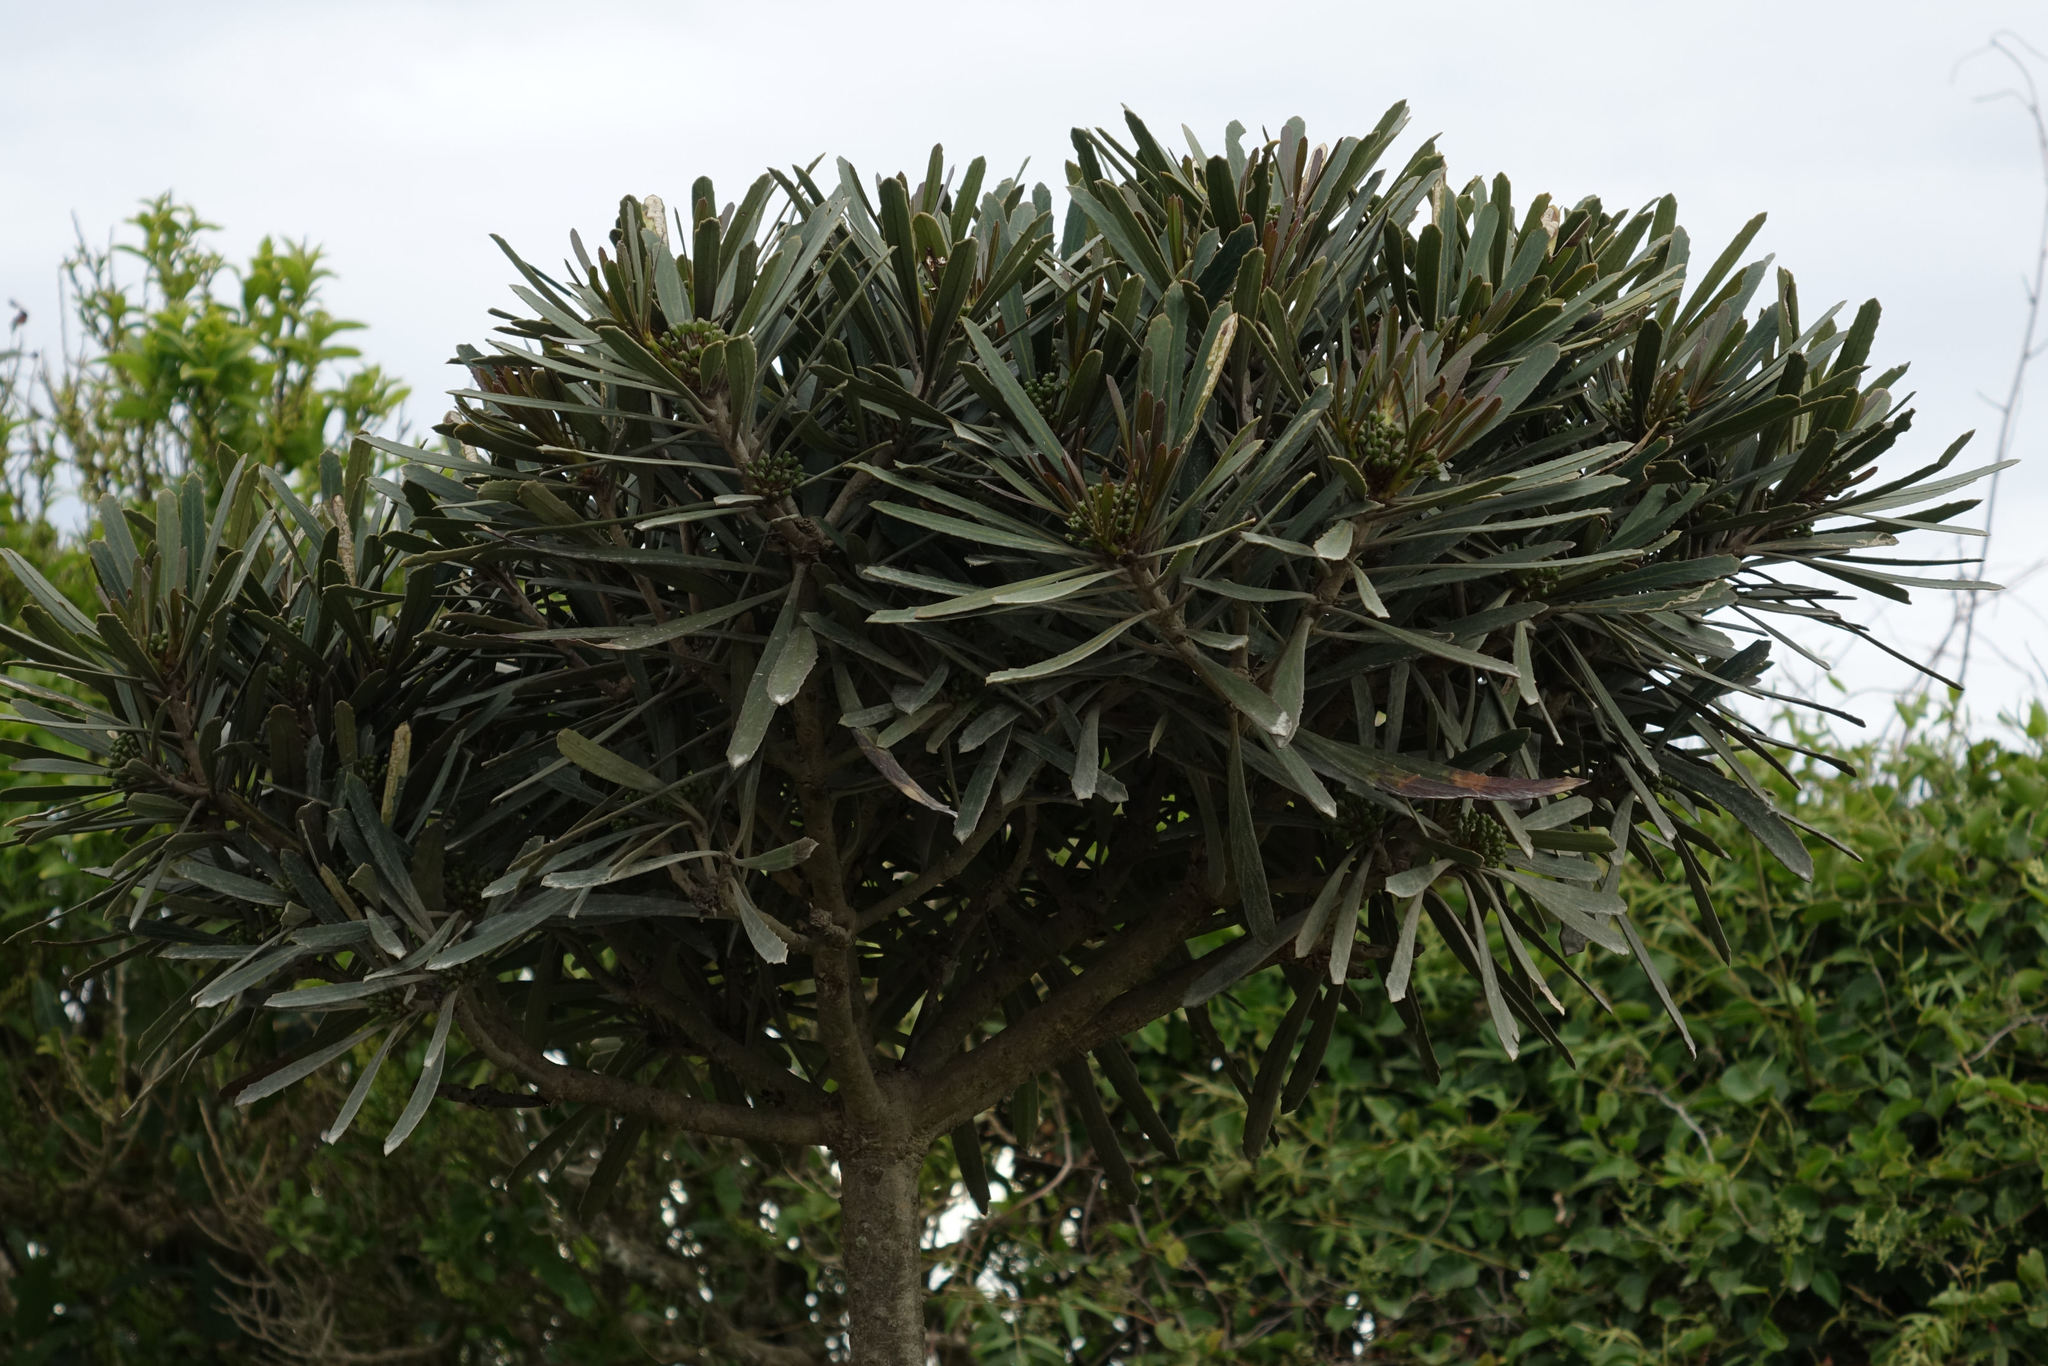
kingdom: Plantae
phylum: Tracheophyta
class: Magnoliopsida
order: Apiales
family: Araliaceae
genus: Pseudopanax
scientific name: Pseudopanax ferox
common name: Fierce lancewood
